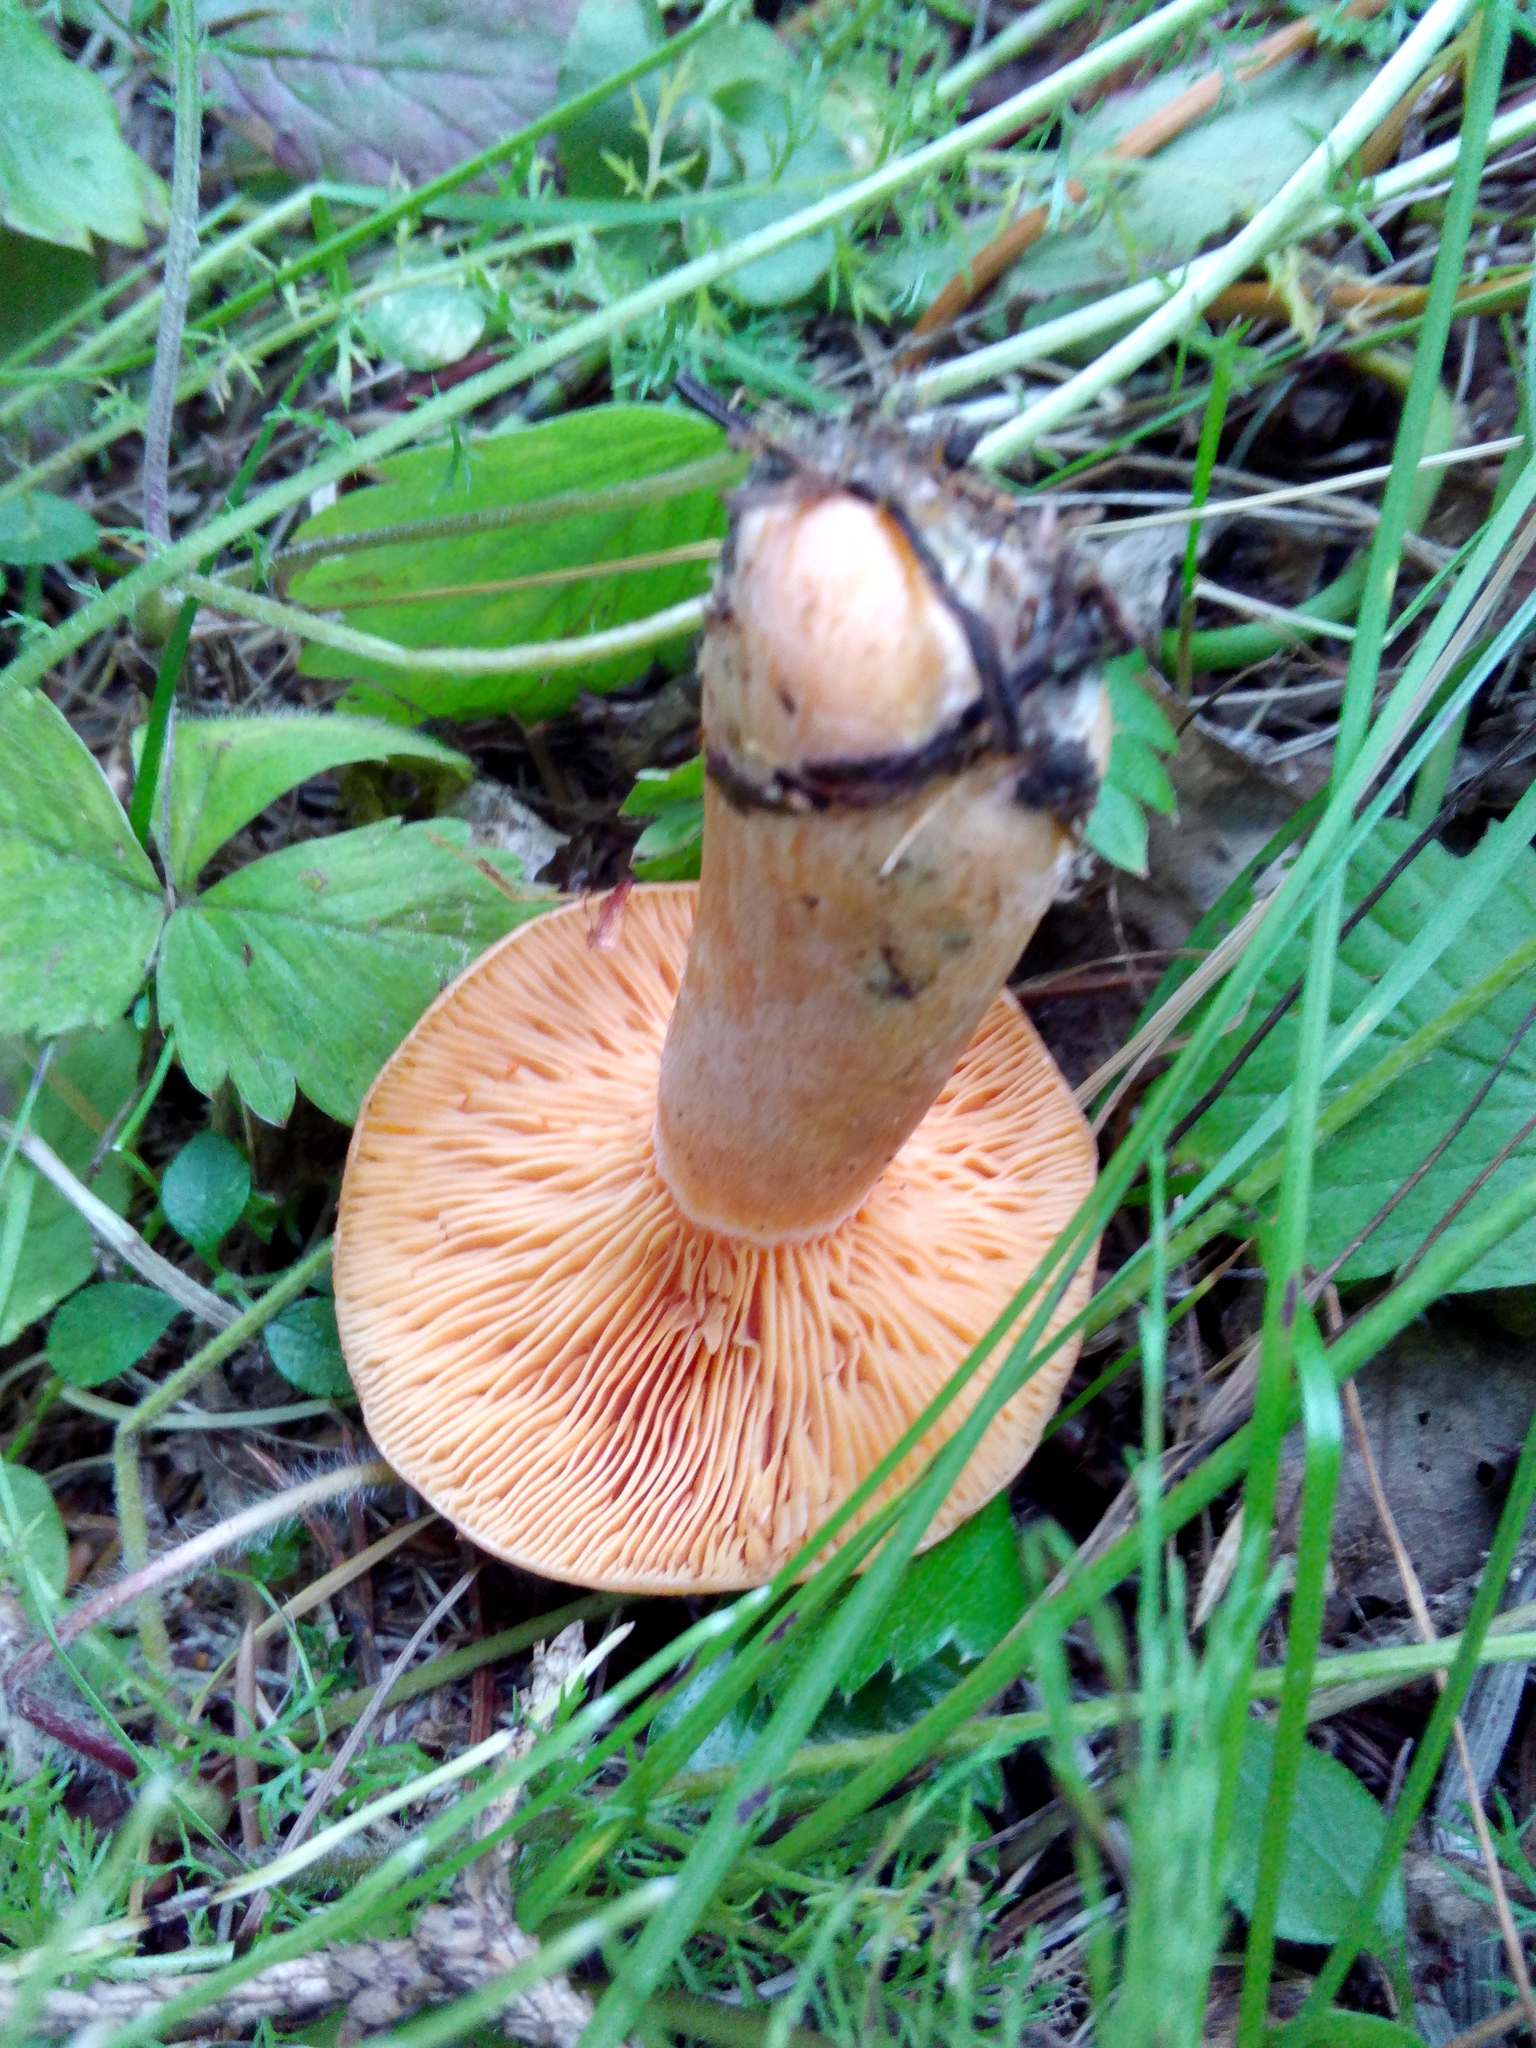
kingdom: Fungi
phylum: Basidiomycota
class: Agaricomycetes
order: Russulales
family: Russulaceae
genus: Lactarius
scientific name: Lactarius deliciosus
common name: Saffron milk-cap
